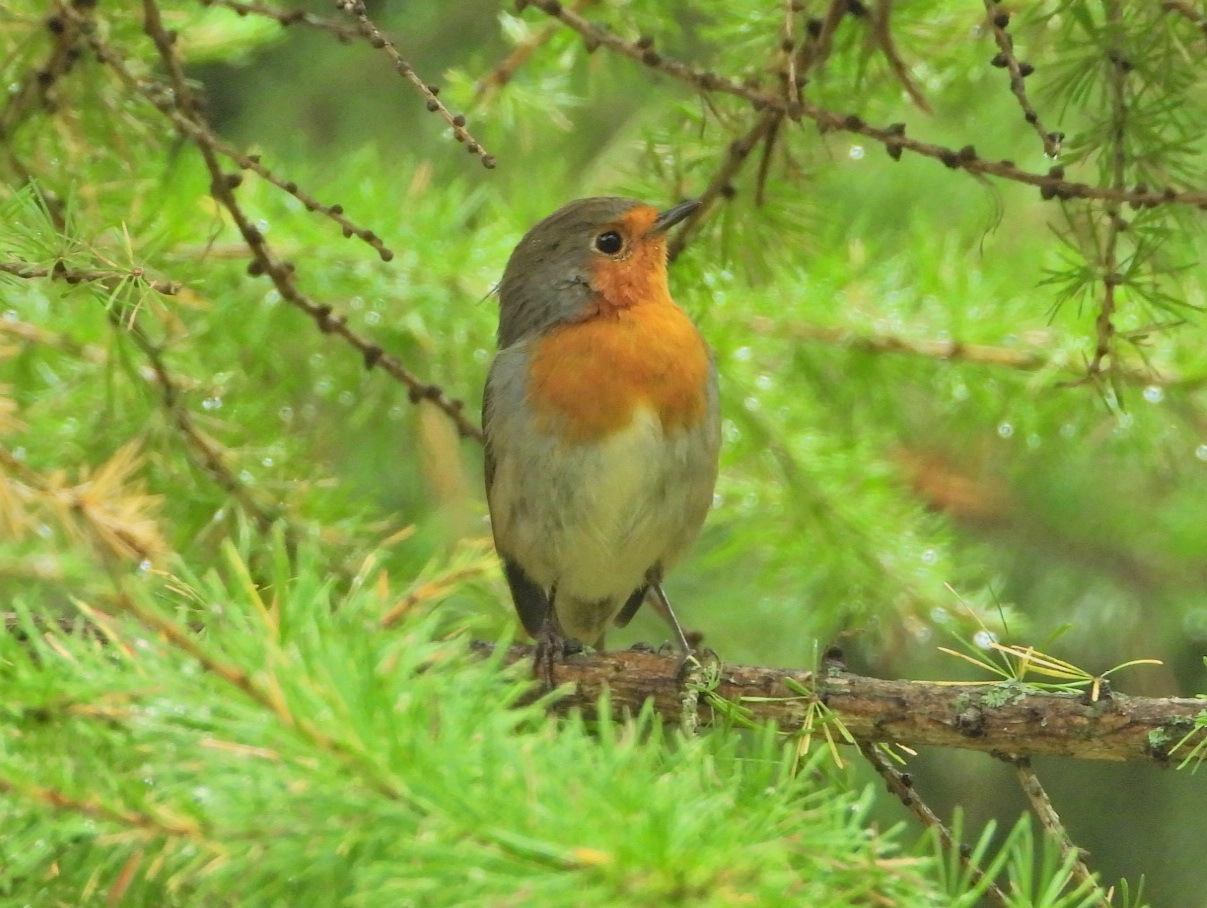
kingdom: Animalia
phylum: Chordata
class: Aves
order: Passeriformes
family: Muscicapidae
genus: Erithacus
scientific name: Erithacus rubecula
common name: European robin
